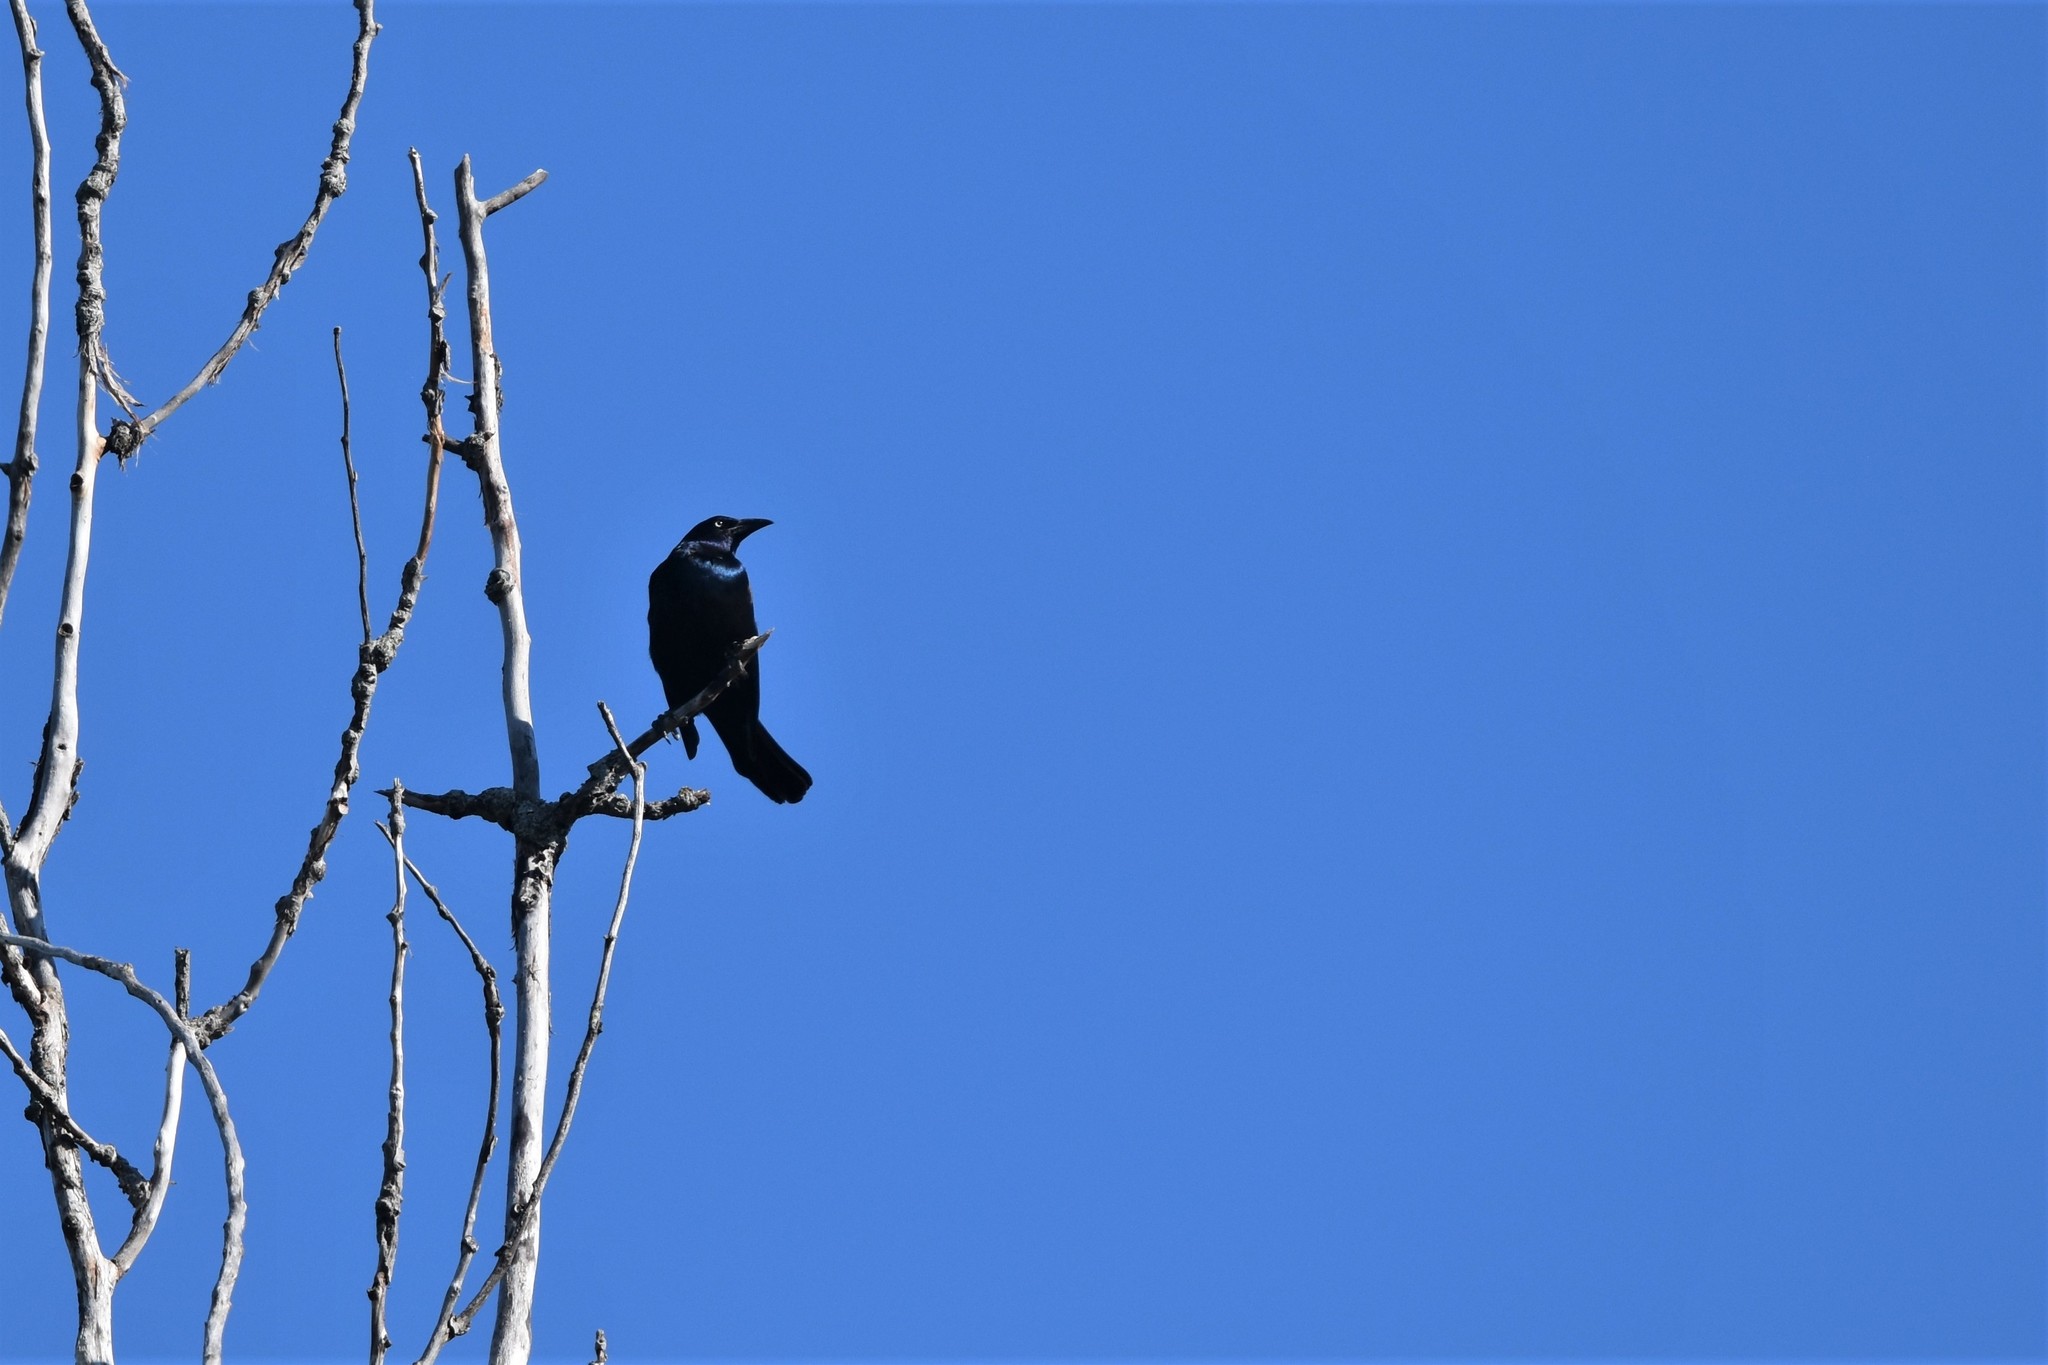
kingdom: Animalia
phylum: Chordata
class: Aves
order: Passeriformes
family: Icteridae
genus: Quiscalus
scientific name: Quiscalus quiscula
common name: Common grackle
